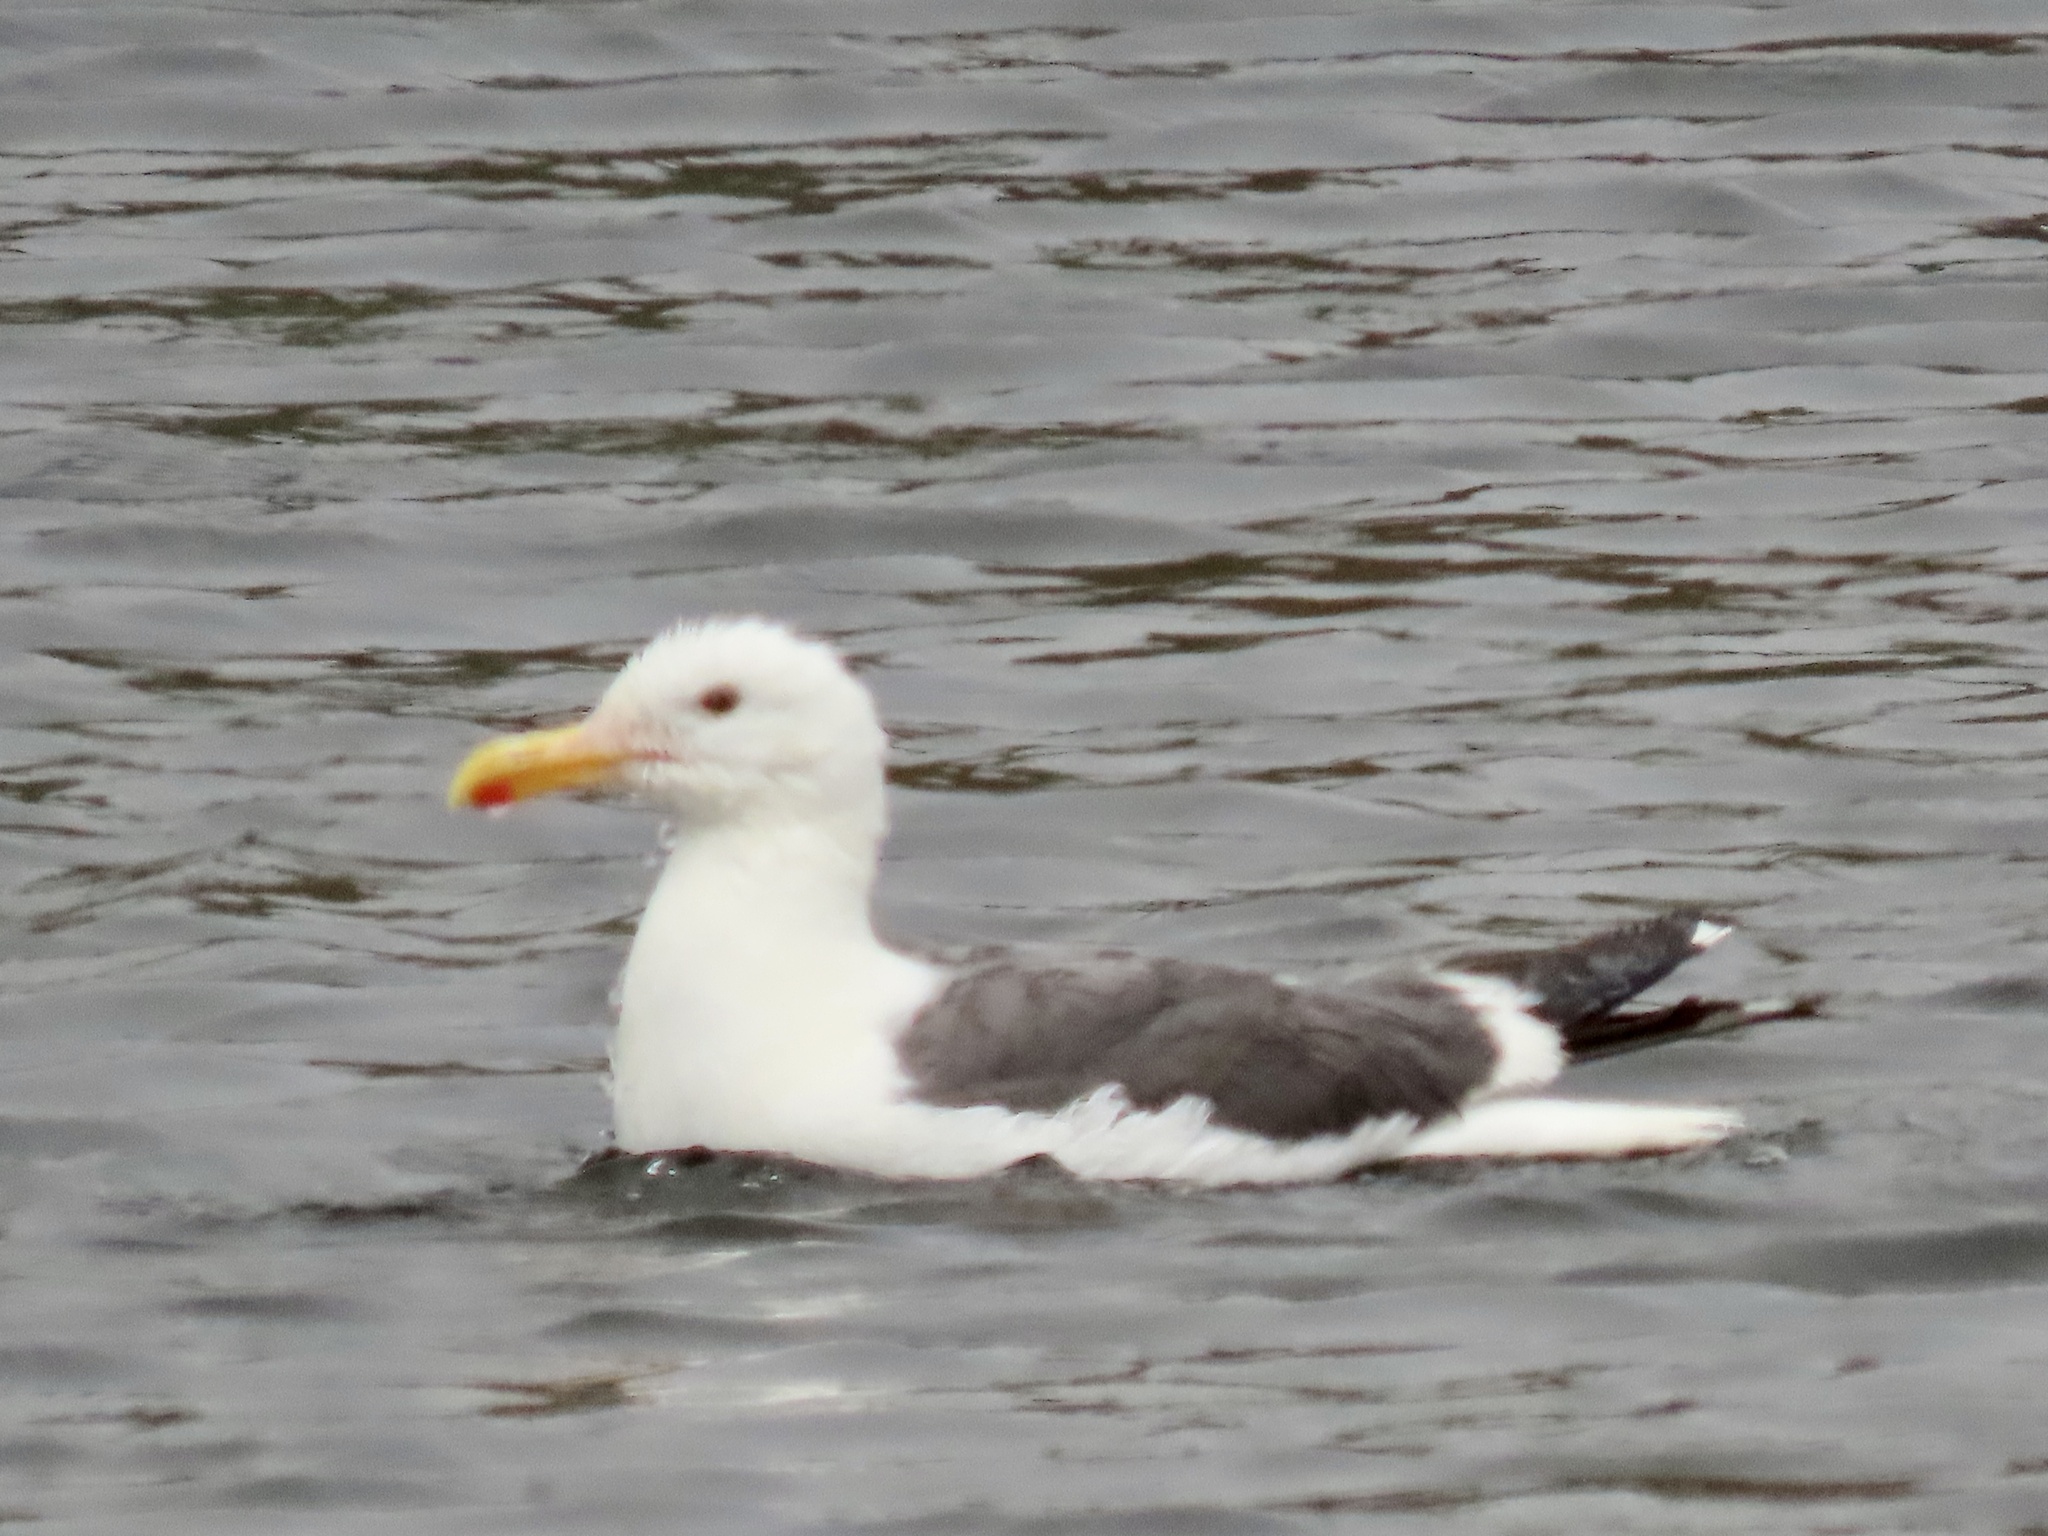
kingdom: Animalia
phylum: Chordata
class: Aves
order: Charadriiformes
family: Laridae
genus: Larus
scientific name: Larus occidentalis
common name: Western gull
